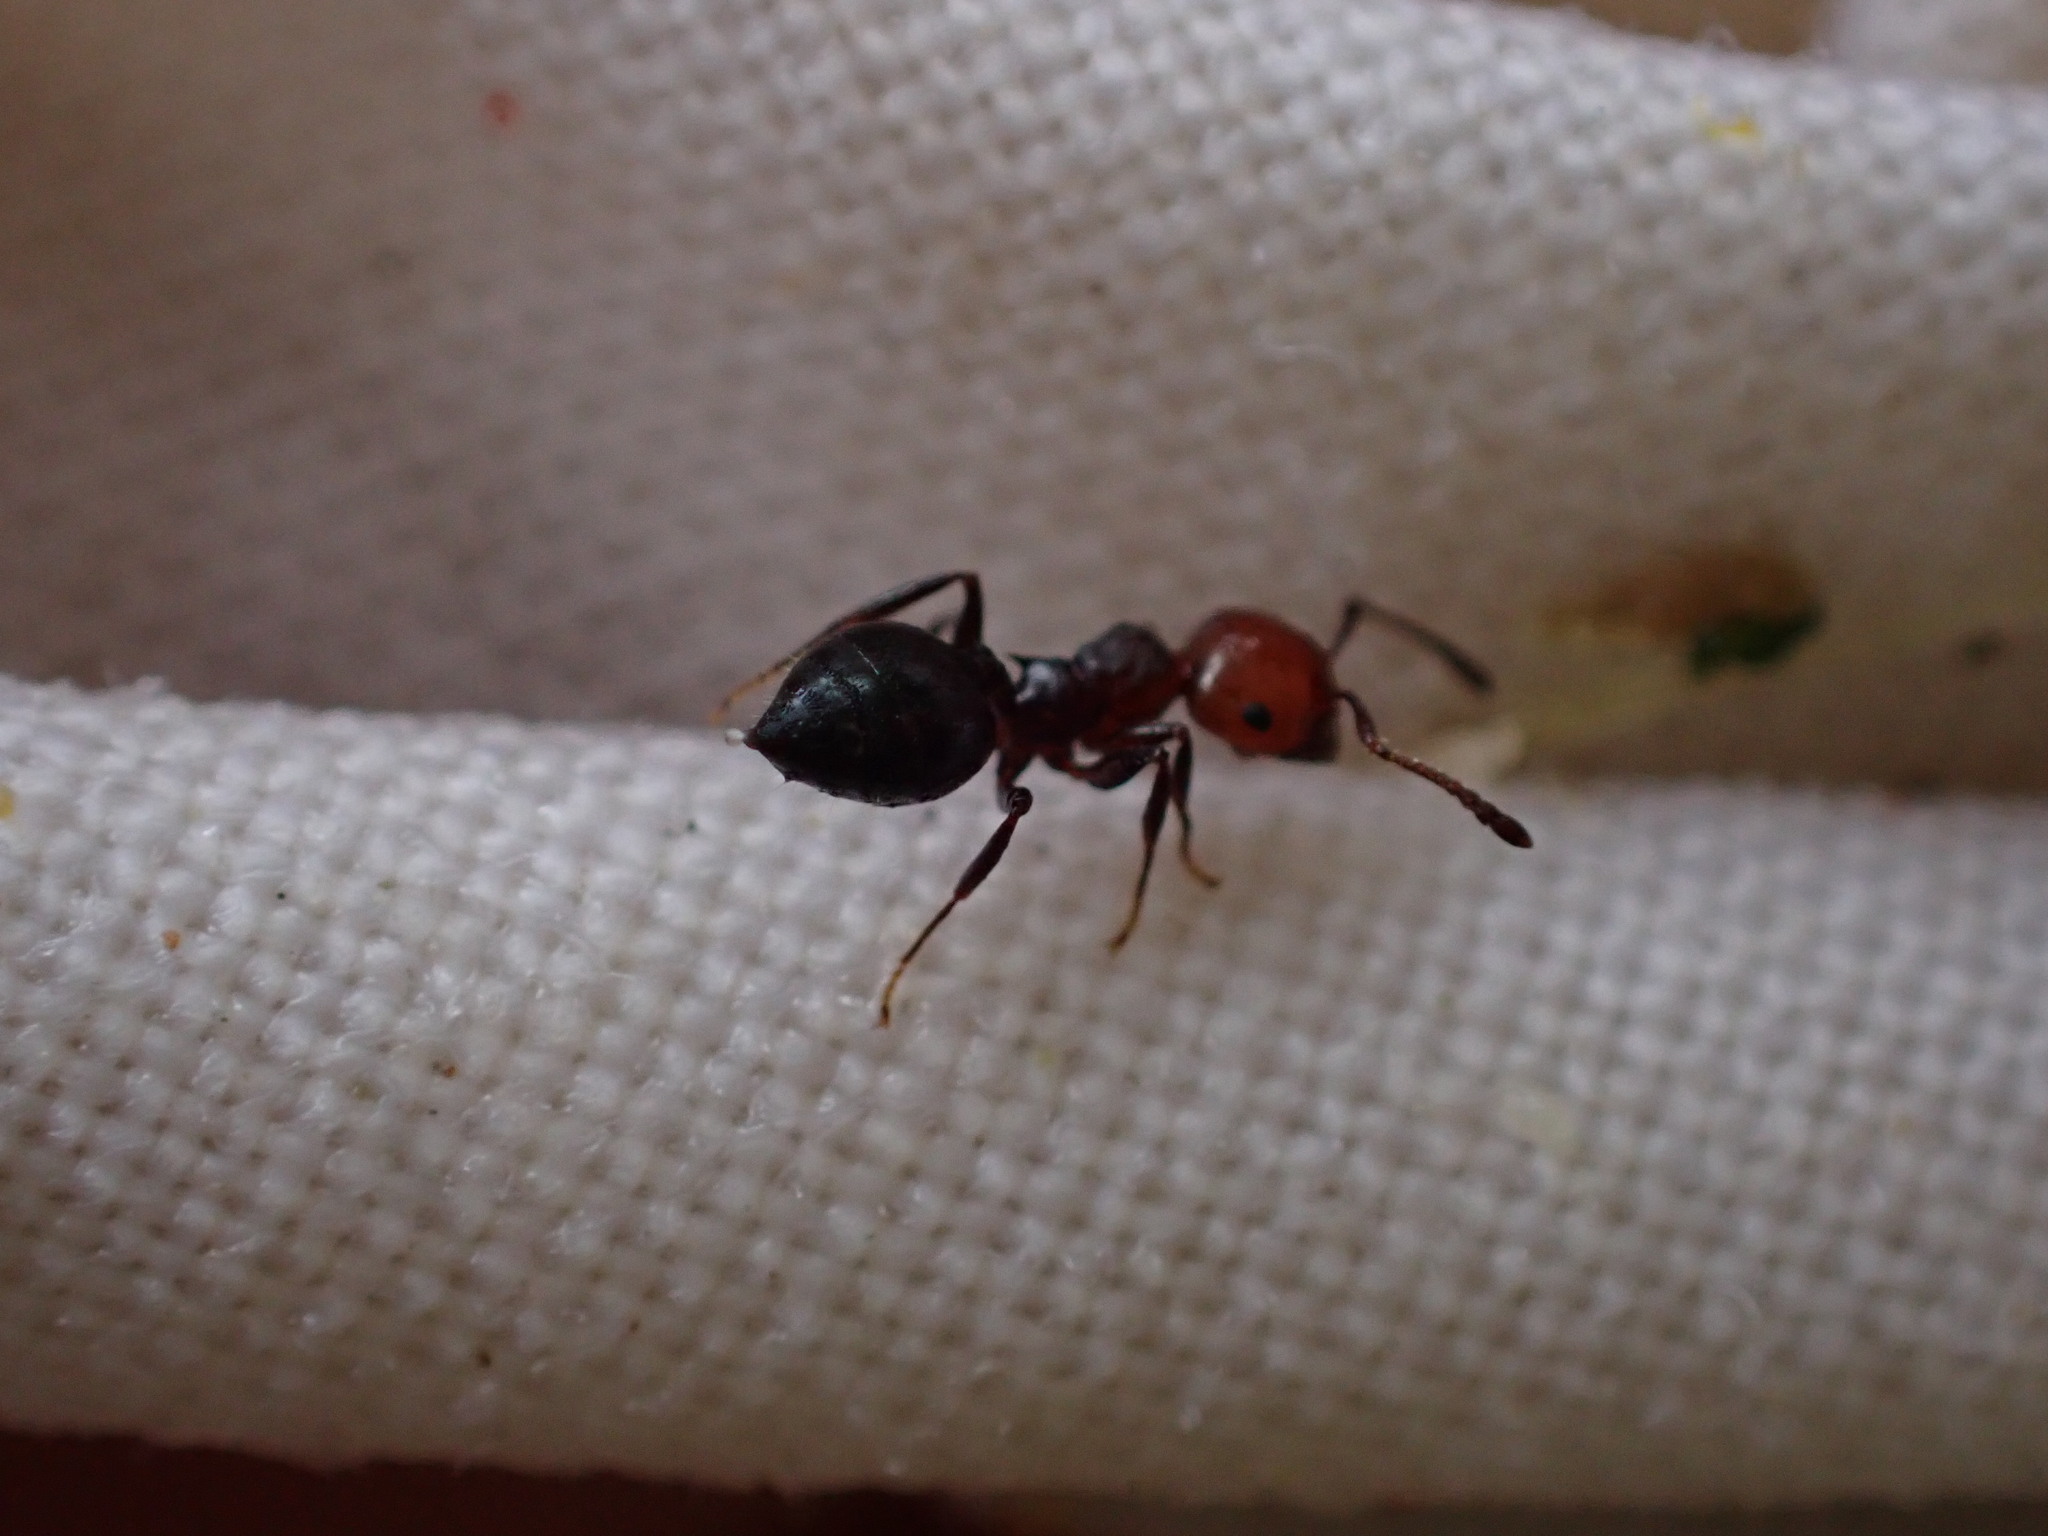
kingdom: Animalia
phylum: Arthropoda
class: Insecta
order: Hymenoptera
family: Formicidae
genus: Crematogaster
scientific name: Crematogaster scutellaris
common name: Fourmi du liège
